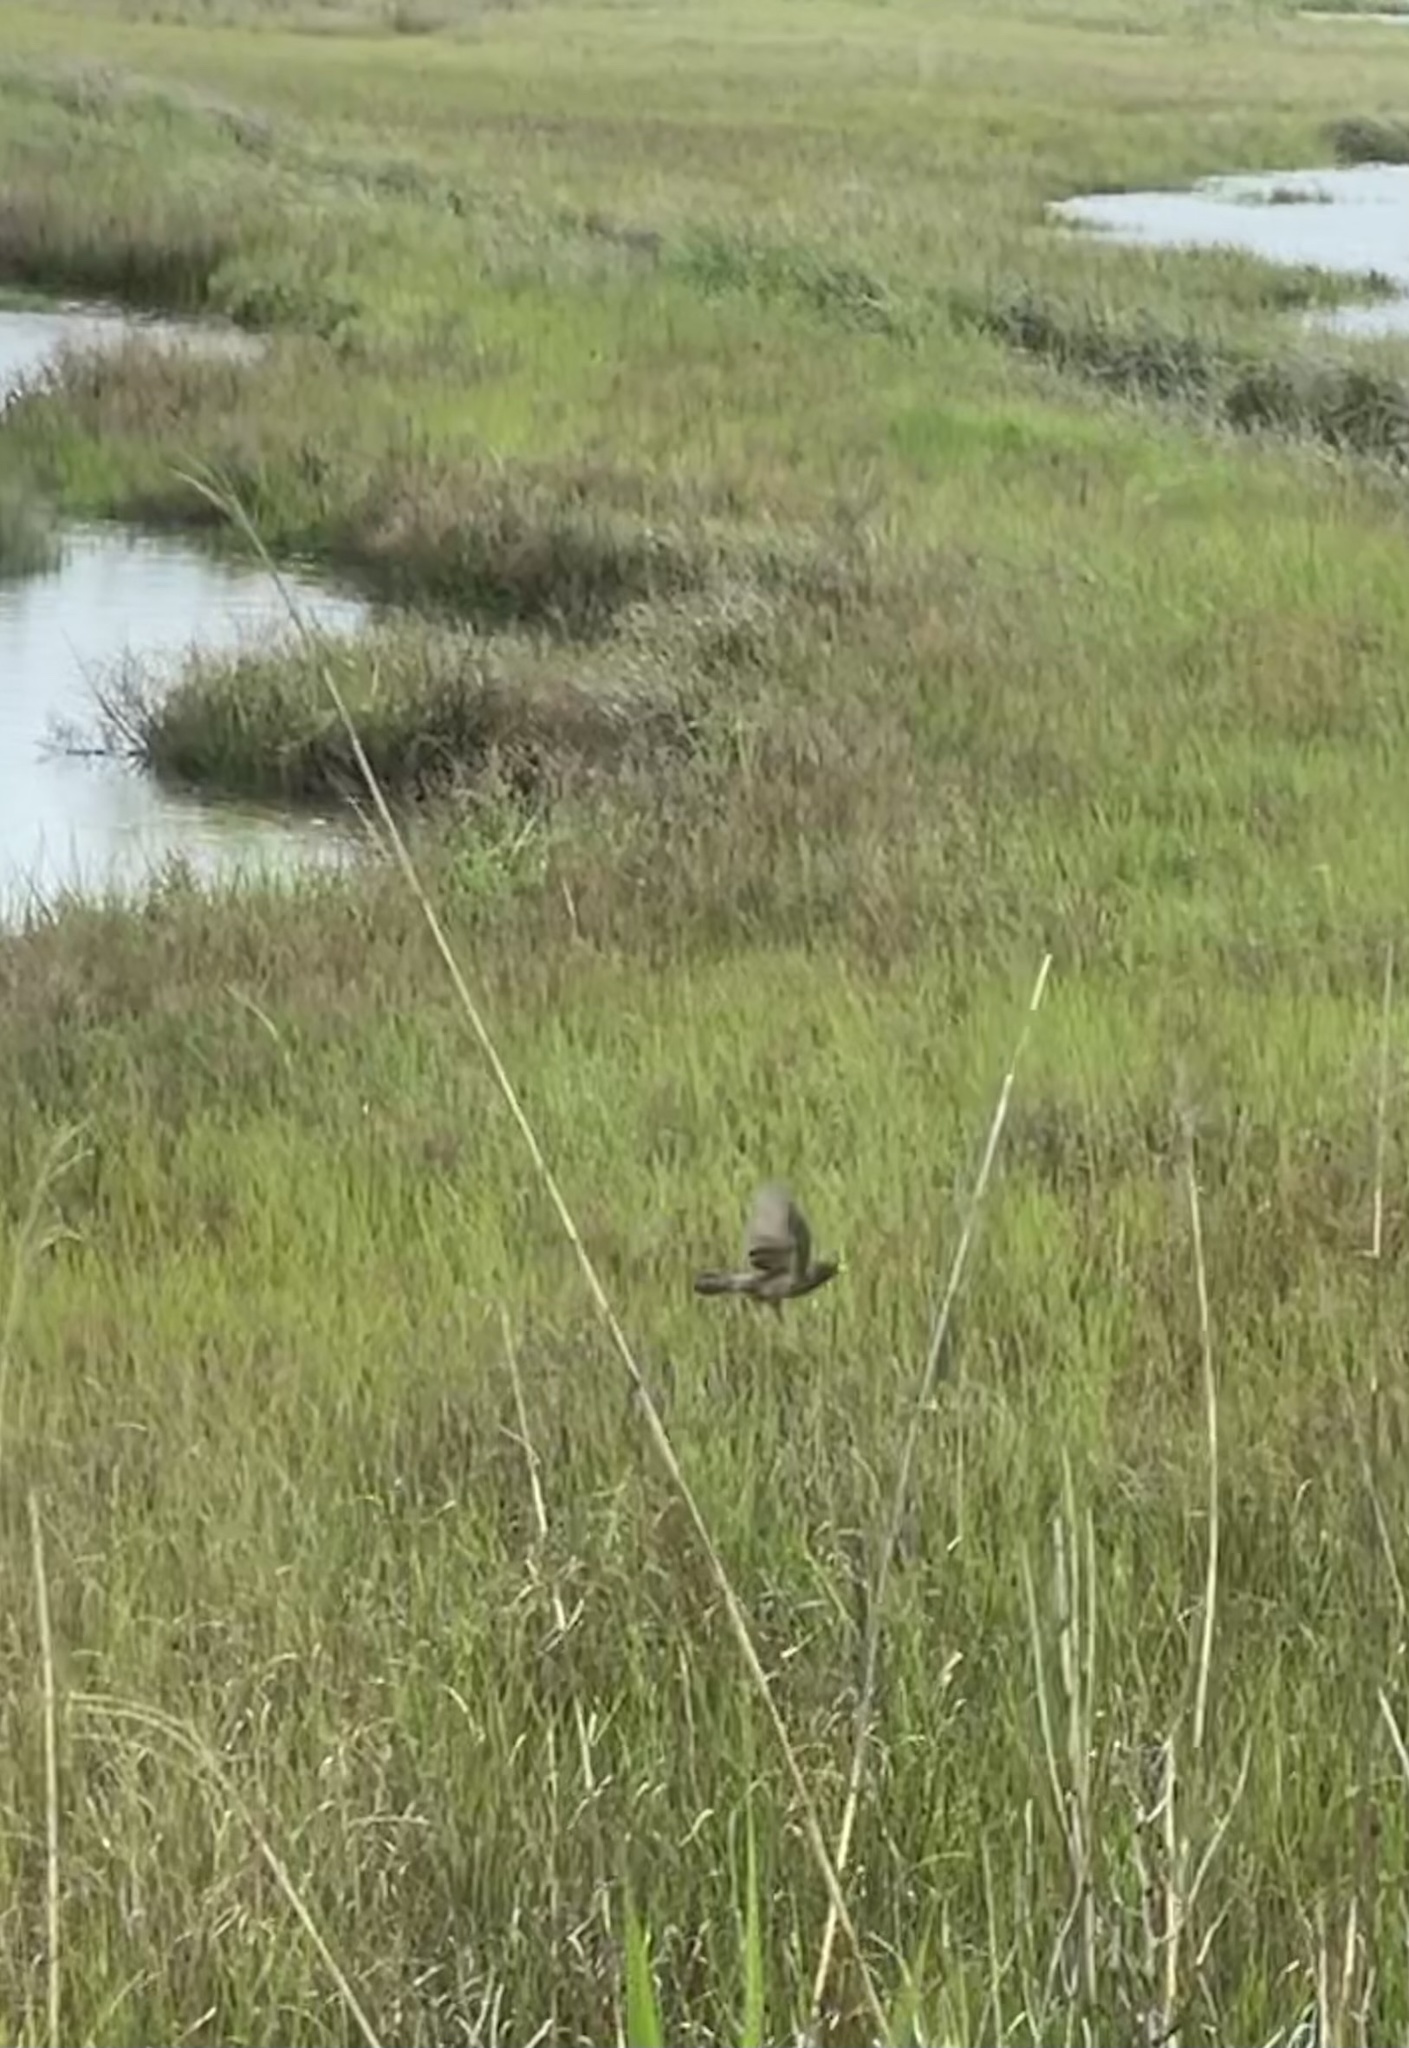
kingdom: Animalia
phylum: Chordata
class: Aves
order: Passeriformes
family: Turdidae
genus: Turdus
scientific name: Turdus migratorius
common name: American robin
